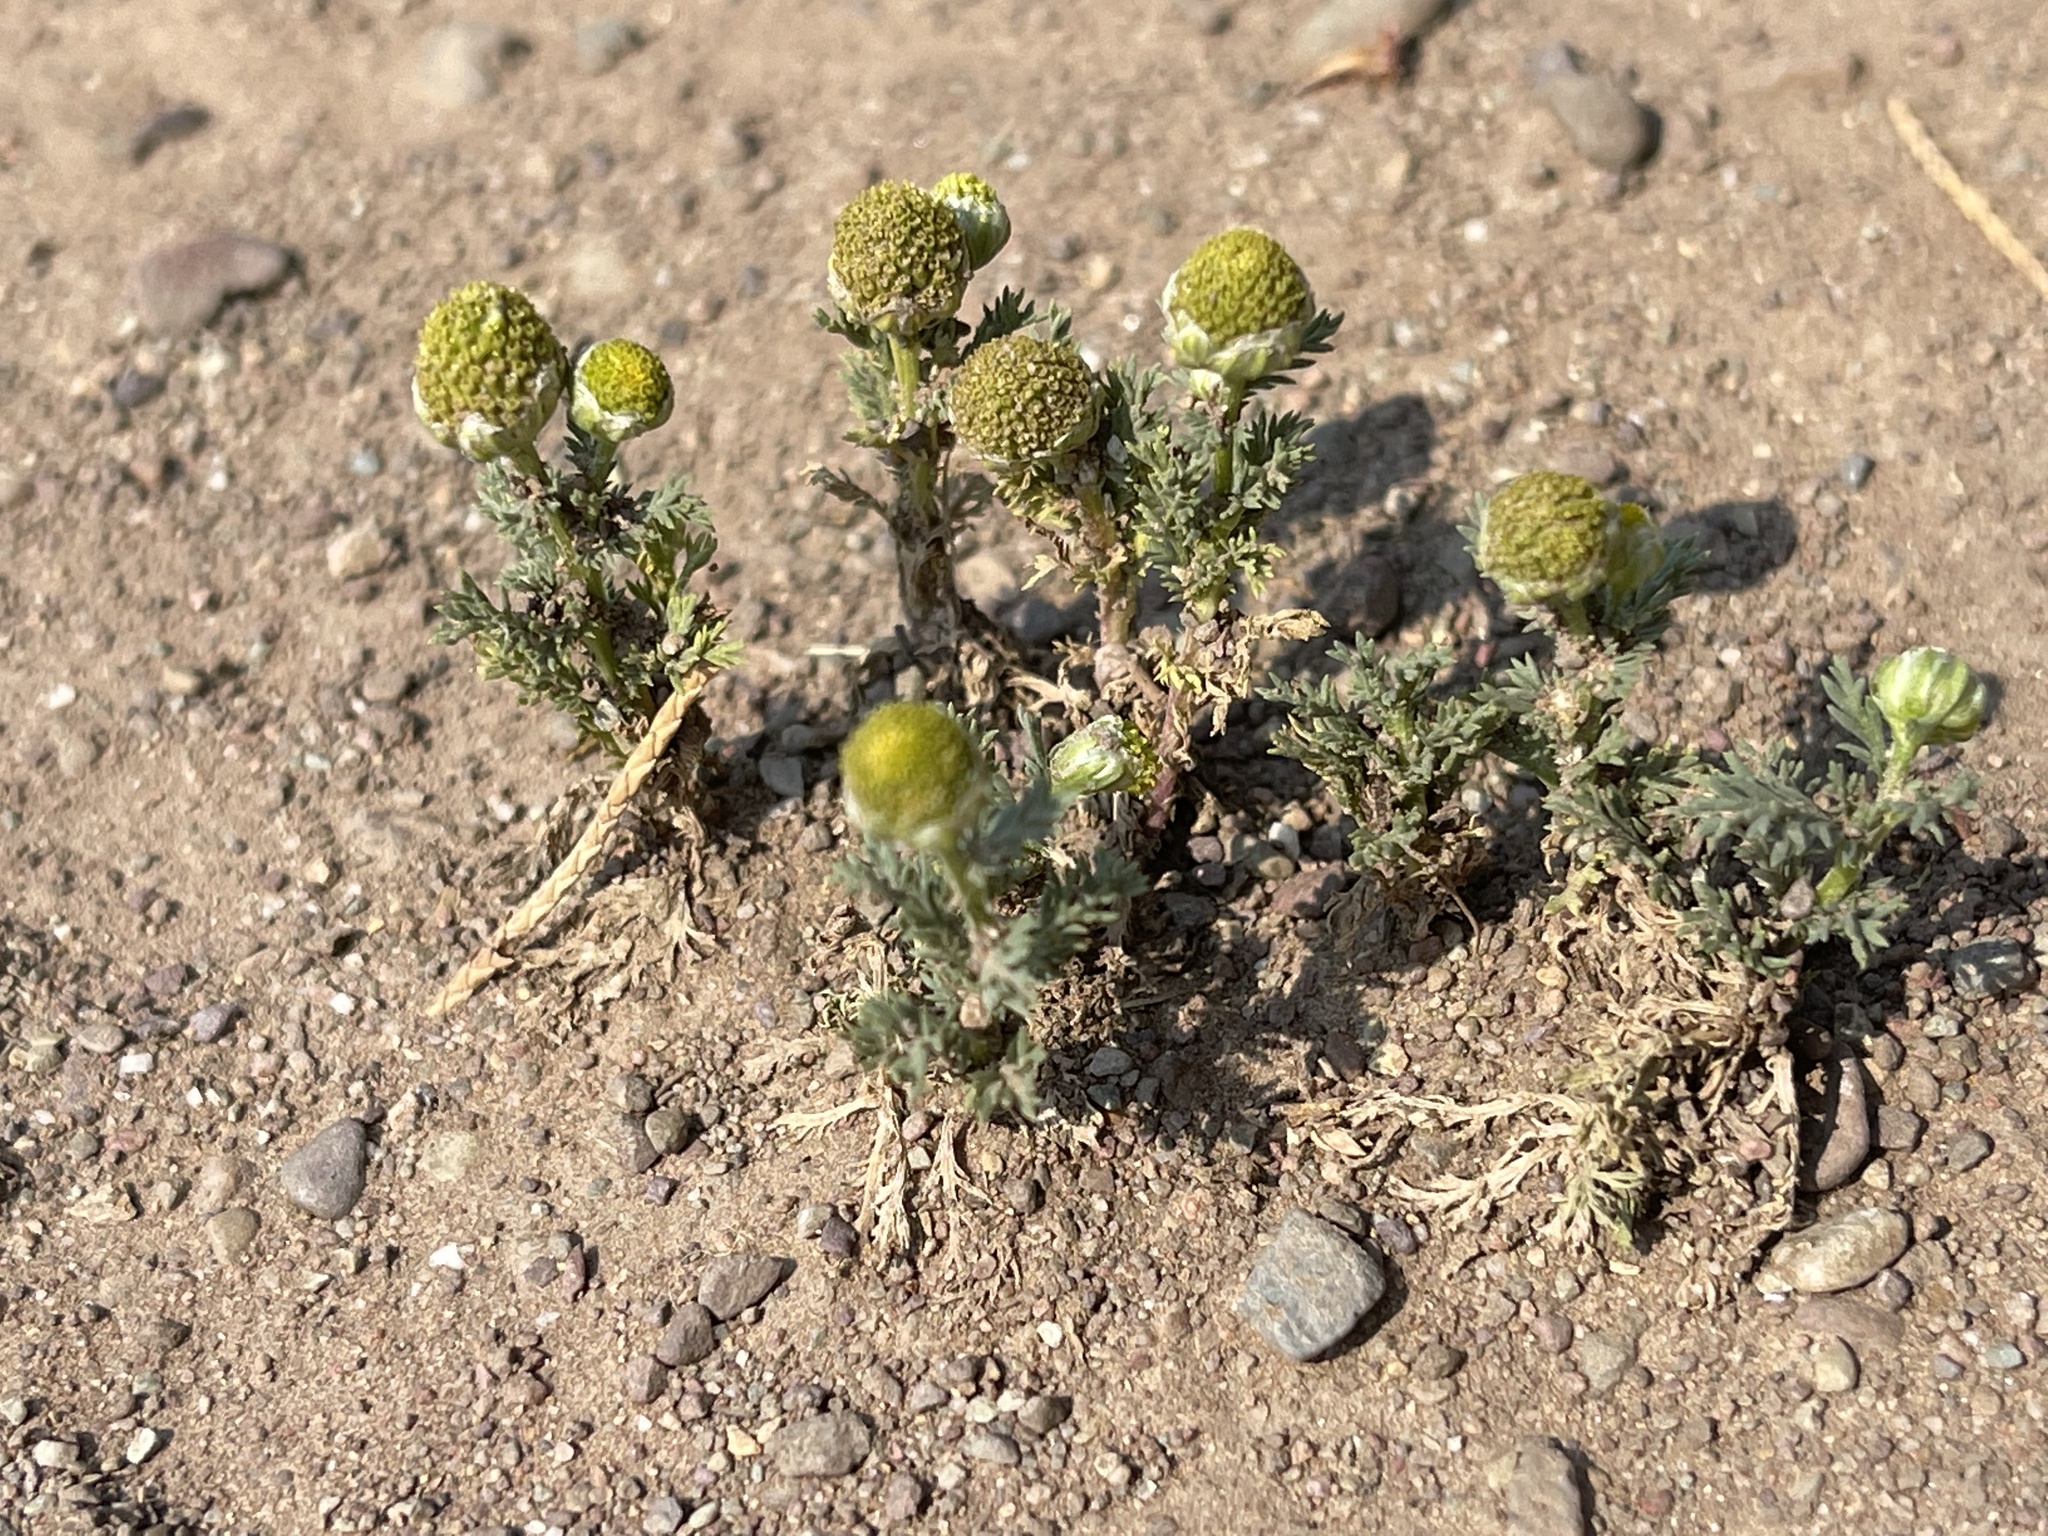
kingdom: Plantae
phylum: Tracheophyta
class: Magnoliopsida
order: Asterales
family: Asteraceae
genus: Matricaria
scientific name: Matricaria discoidea
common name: Disc mayweed
